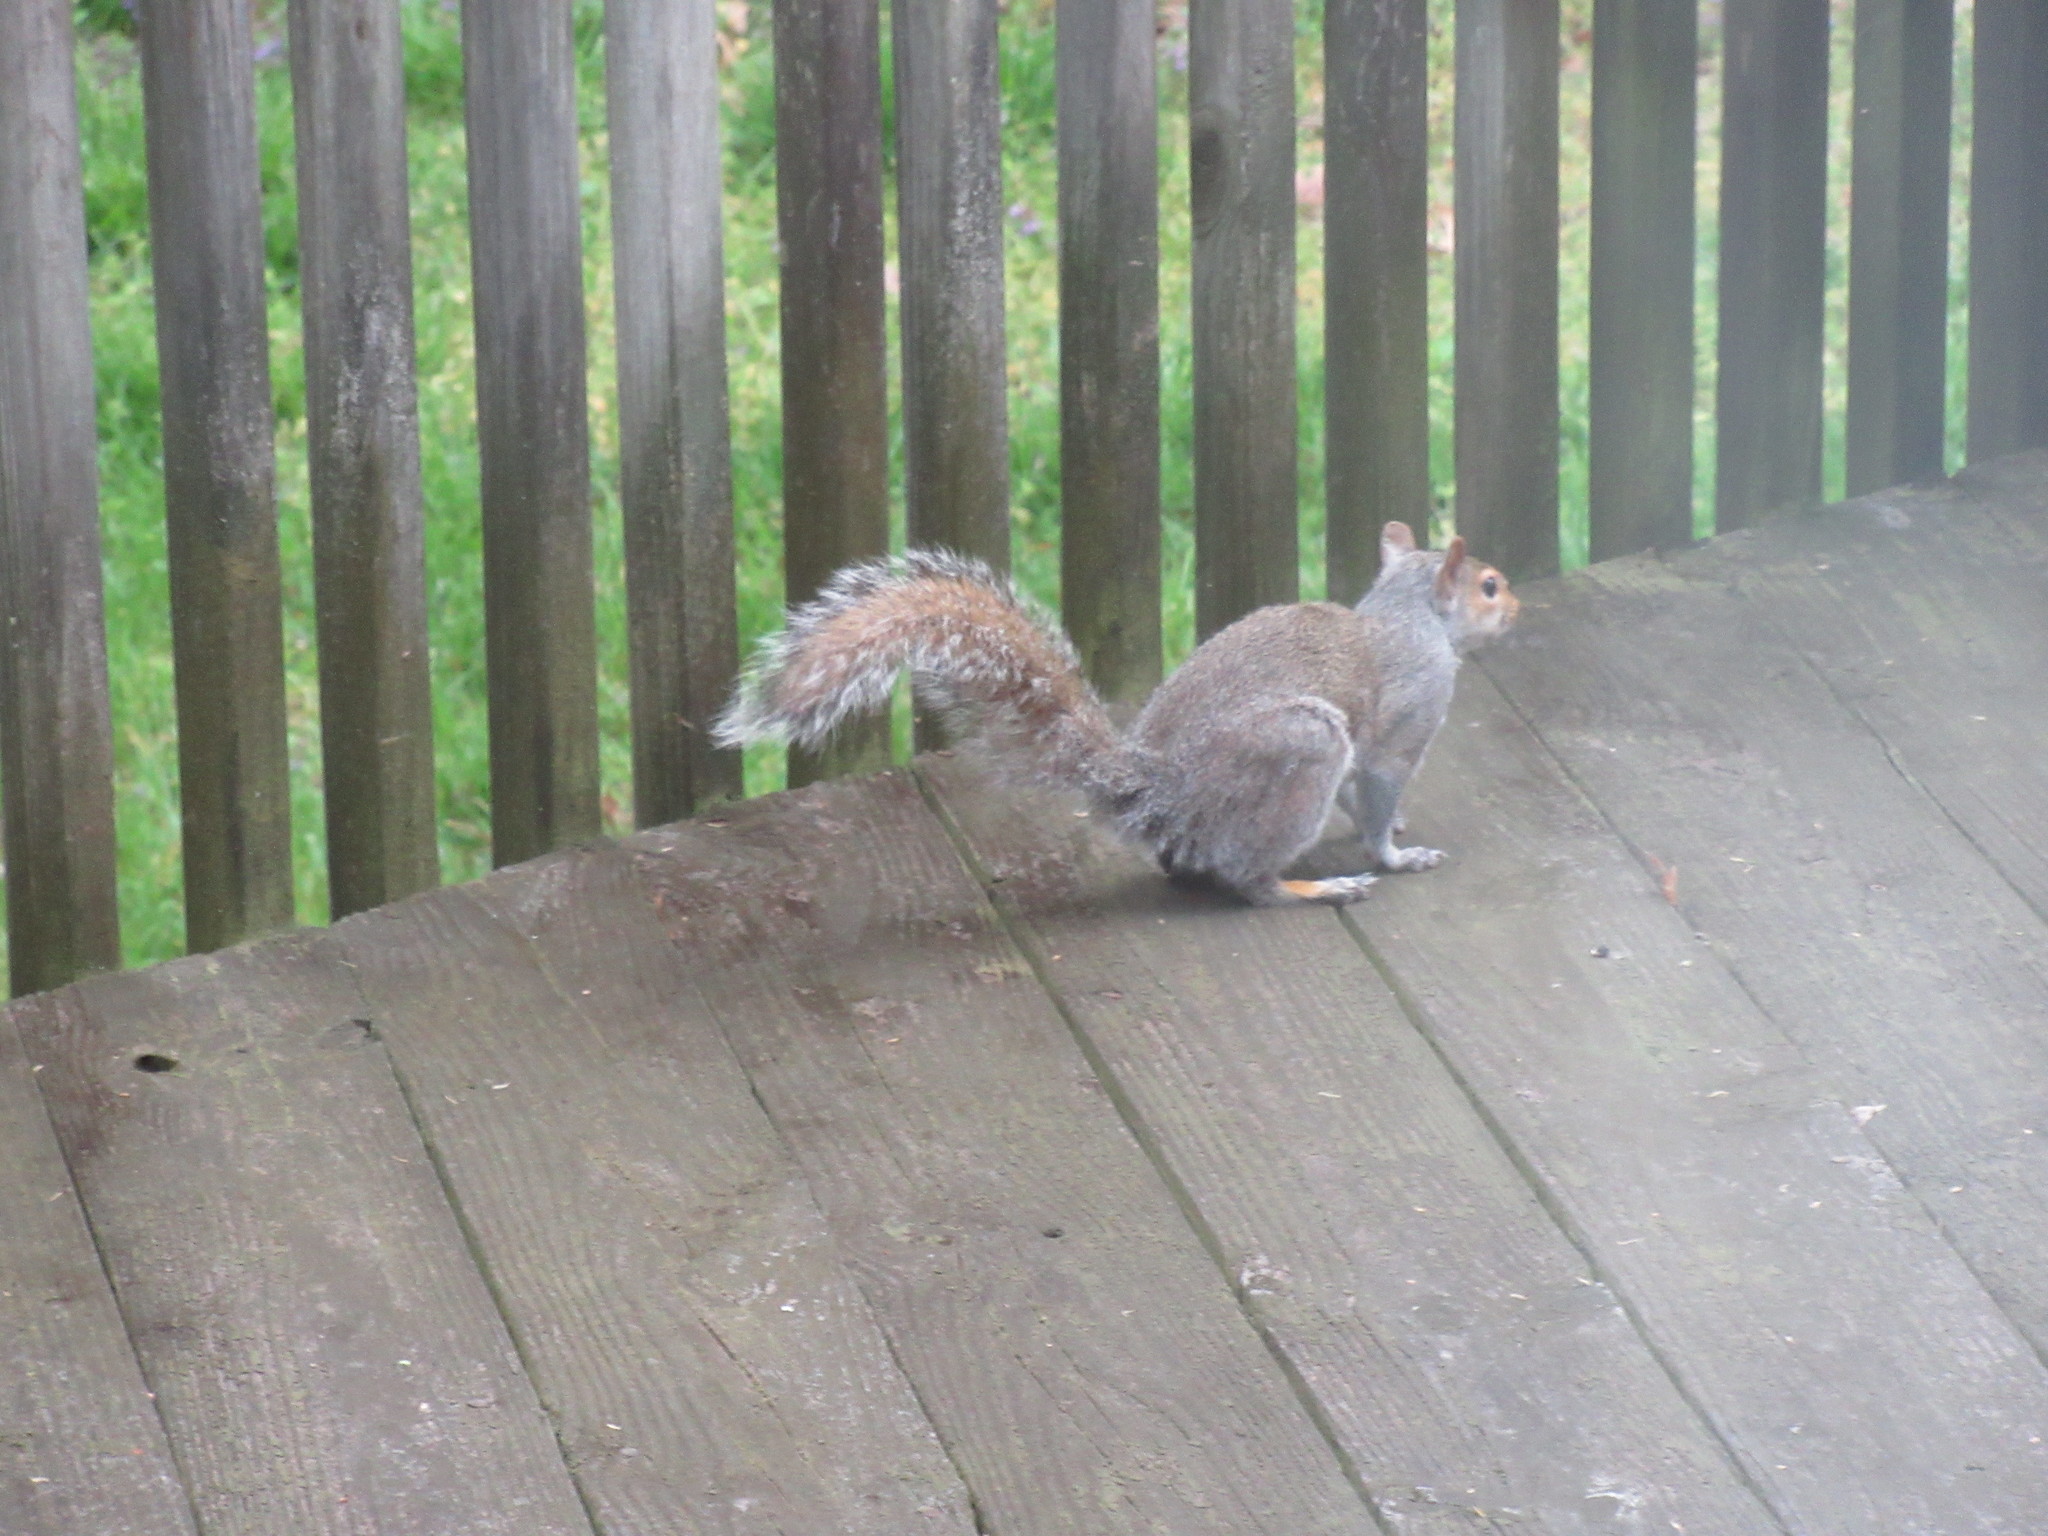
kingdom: Animalia
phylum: Chordata
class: Mammalia
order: Rodentia
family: Sciuridae
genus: Sciurus
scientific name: Sciurus carolinensis
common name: Eastern gray squirrel
